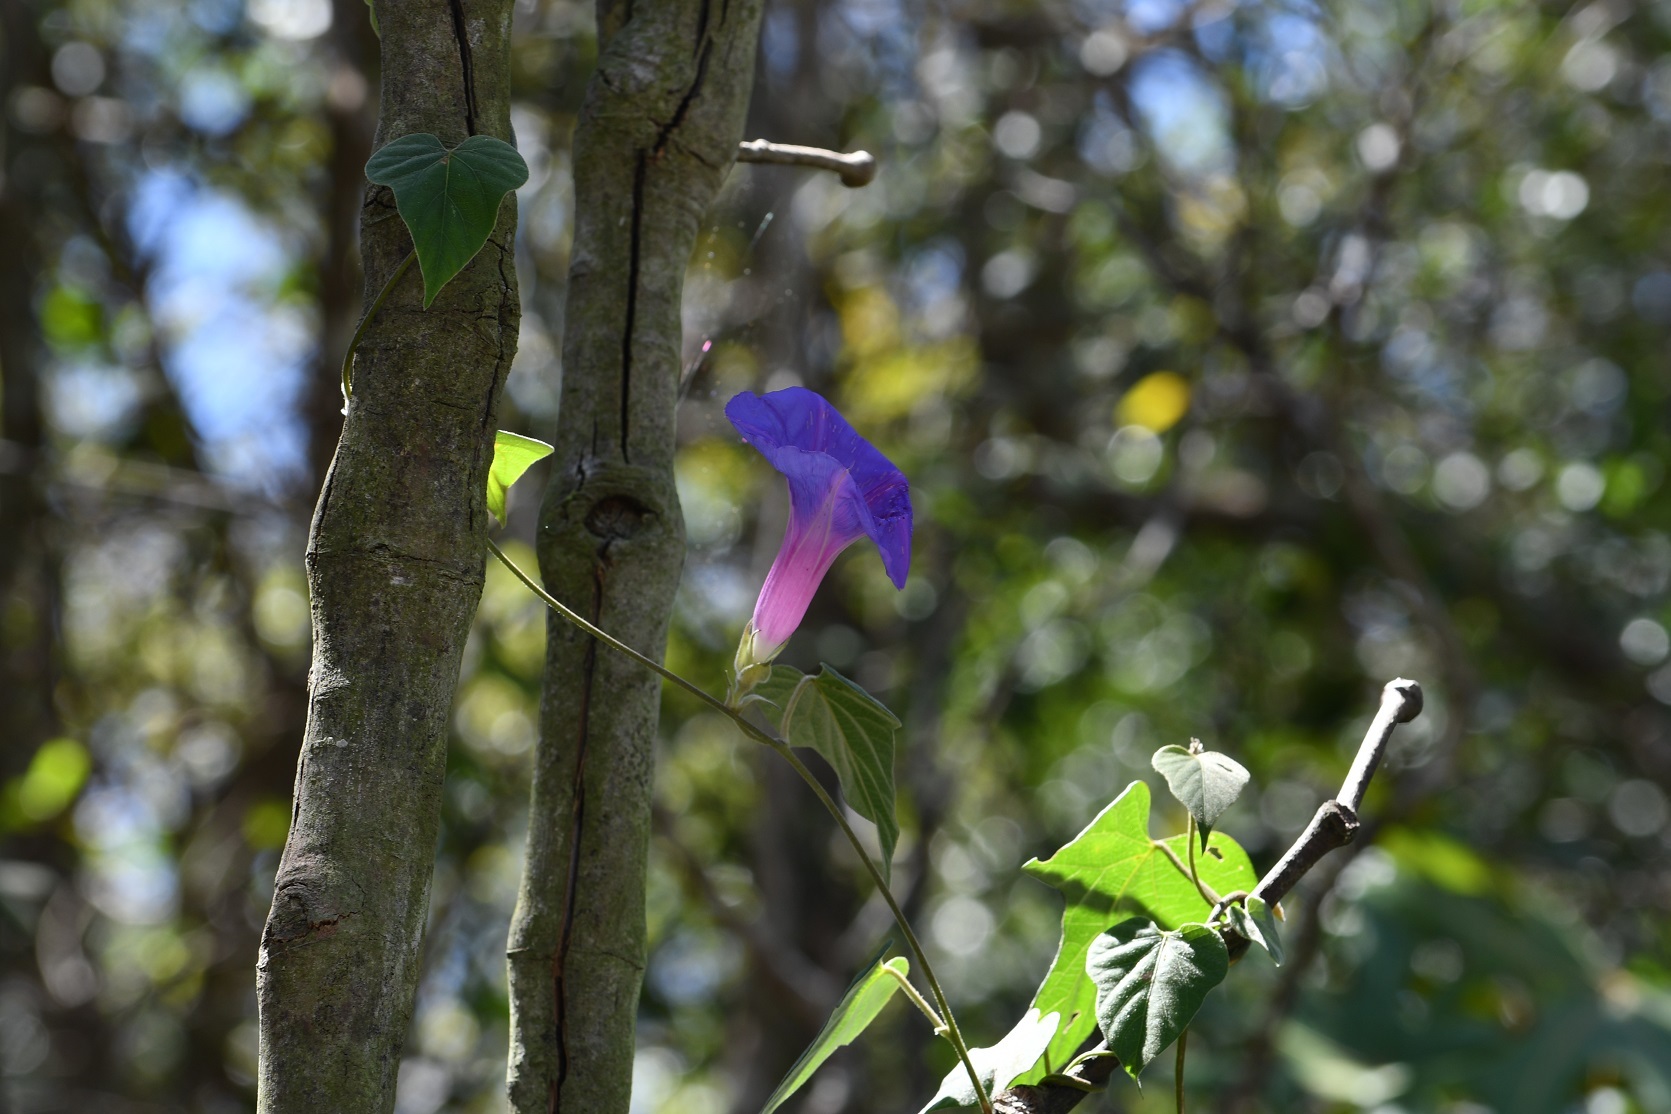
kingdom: Plantae
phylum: Tracheophyta
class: Magnoliopsida
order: Solanales
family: Convolvulaceae
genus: Ipomoea
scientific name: Ipomoea mitchelliae
